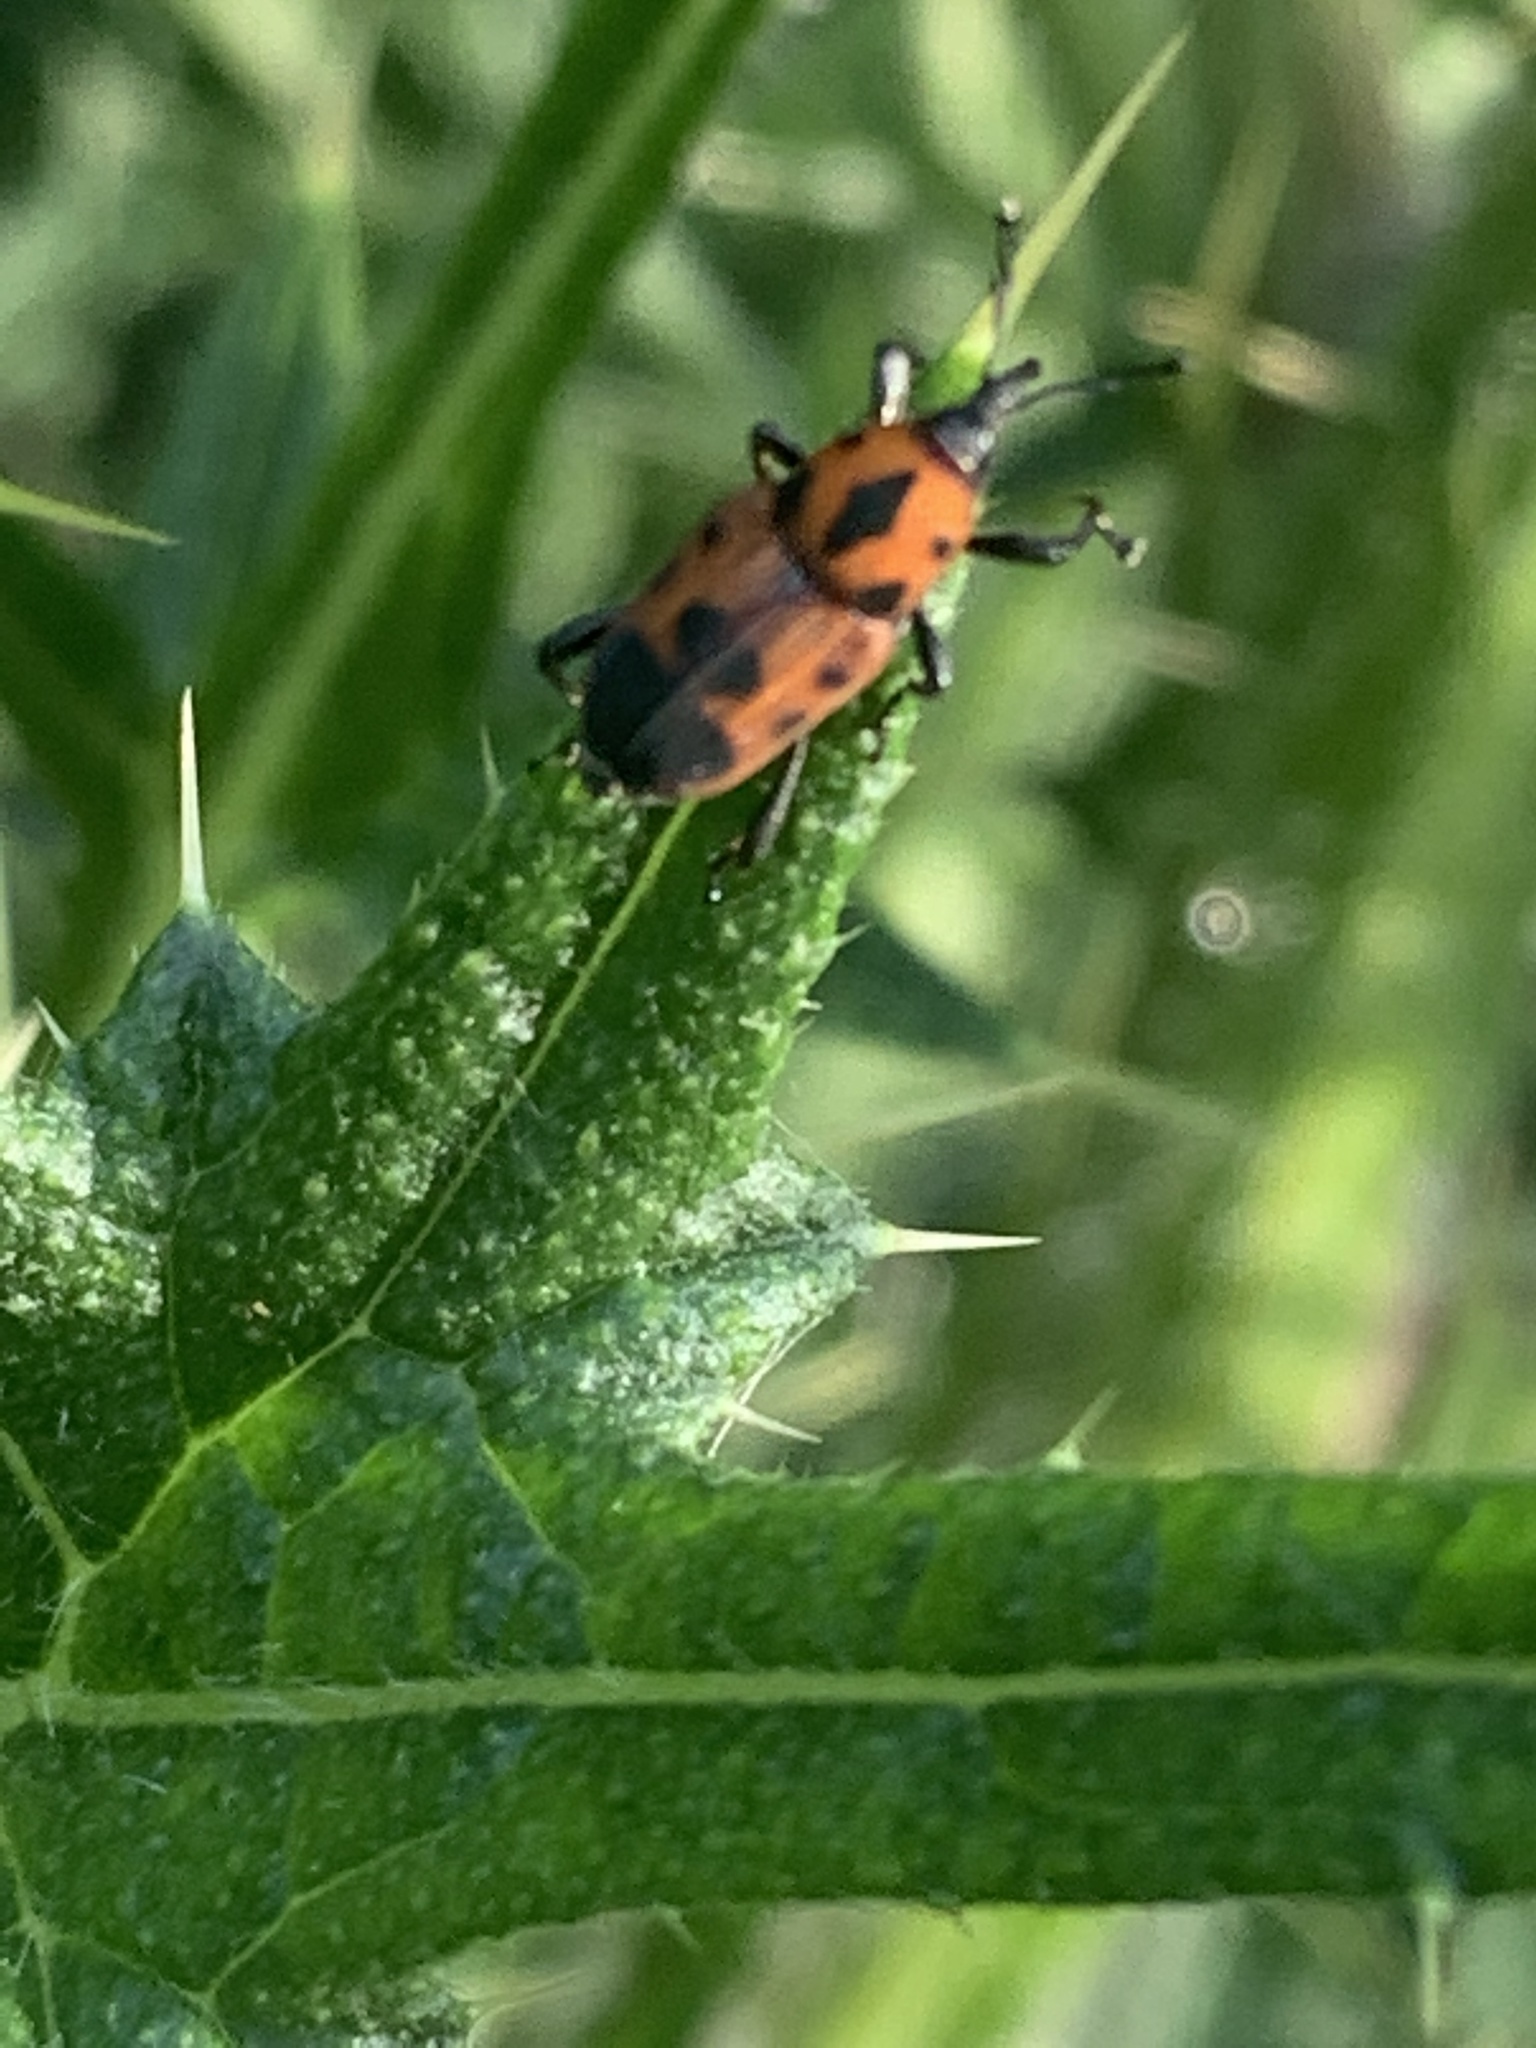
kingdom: Animalia
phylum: Arthropoda
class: Insecta
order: Coleoptera
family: Dryophthoridae
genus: Rhodobaenus
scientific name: Rhodobaenus quinquepunctatus
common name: Cocklebur weevil
